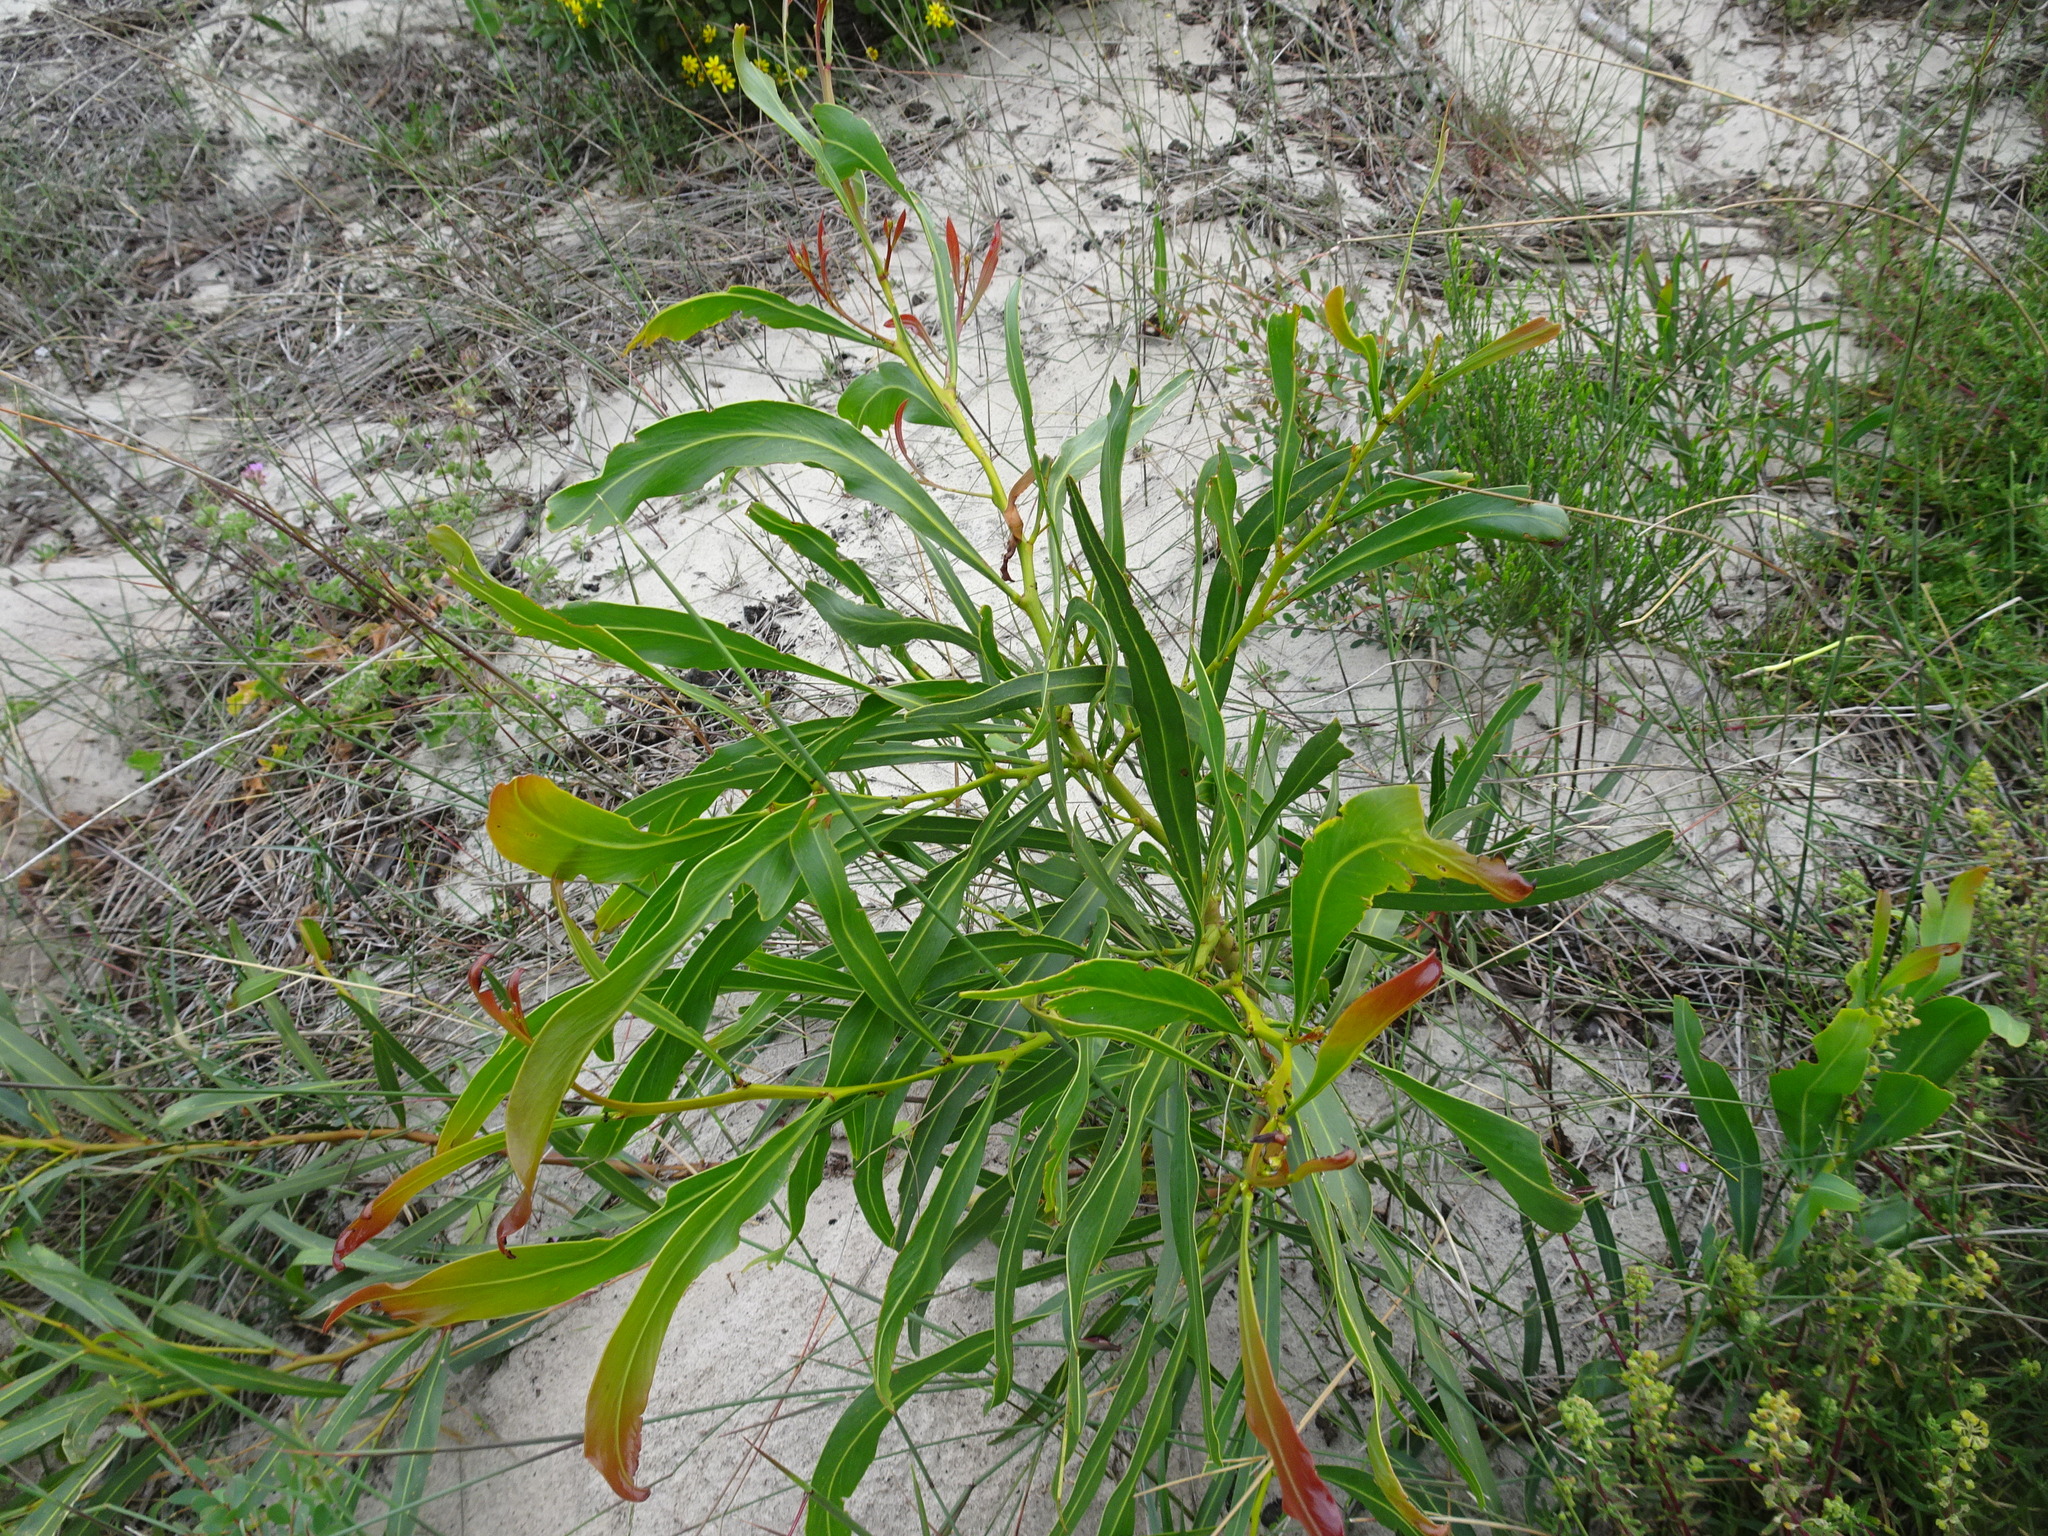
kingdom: Plantae
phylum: Tracheophyta
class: Magnoliopsida
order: Fabales
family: Fabaceae
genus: Acacia
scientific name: Acacia saligna
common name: Orange wattle
